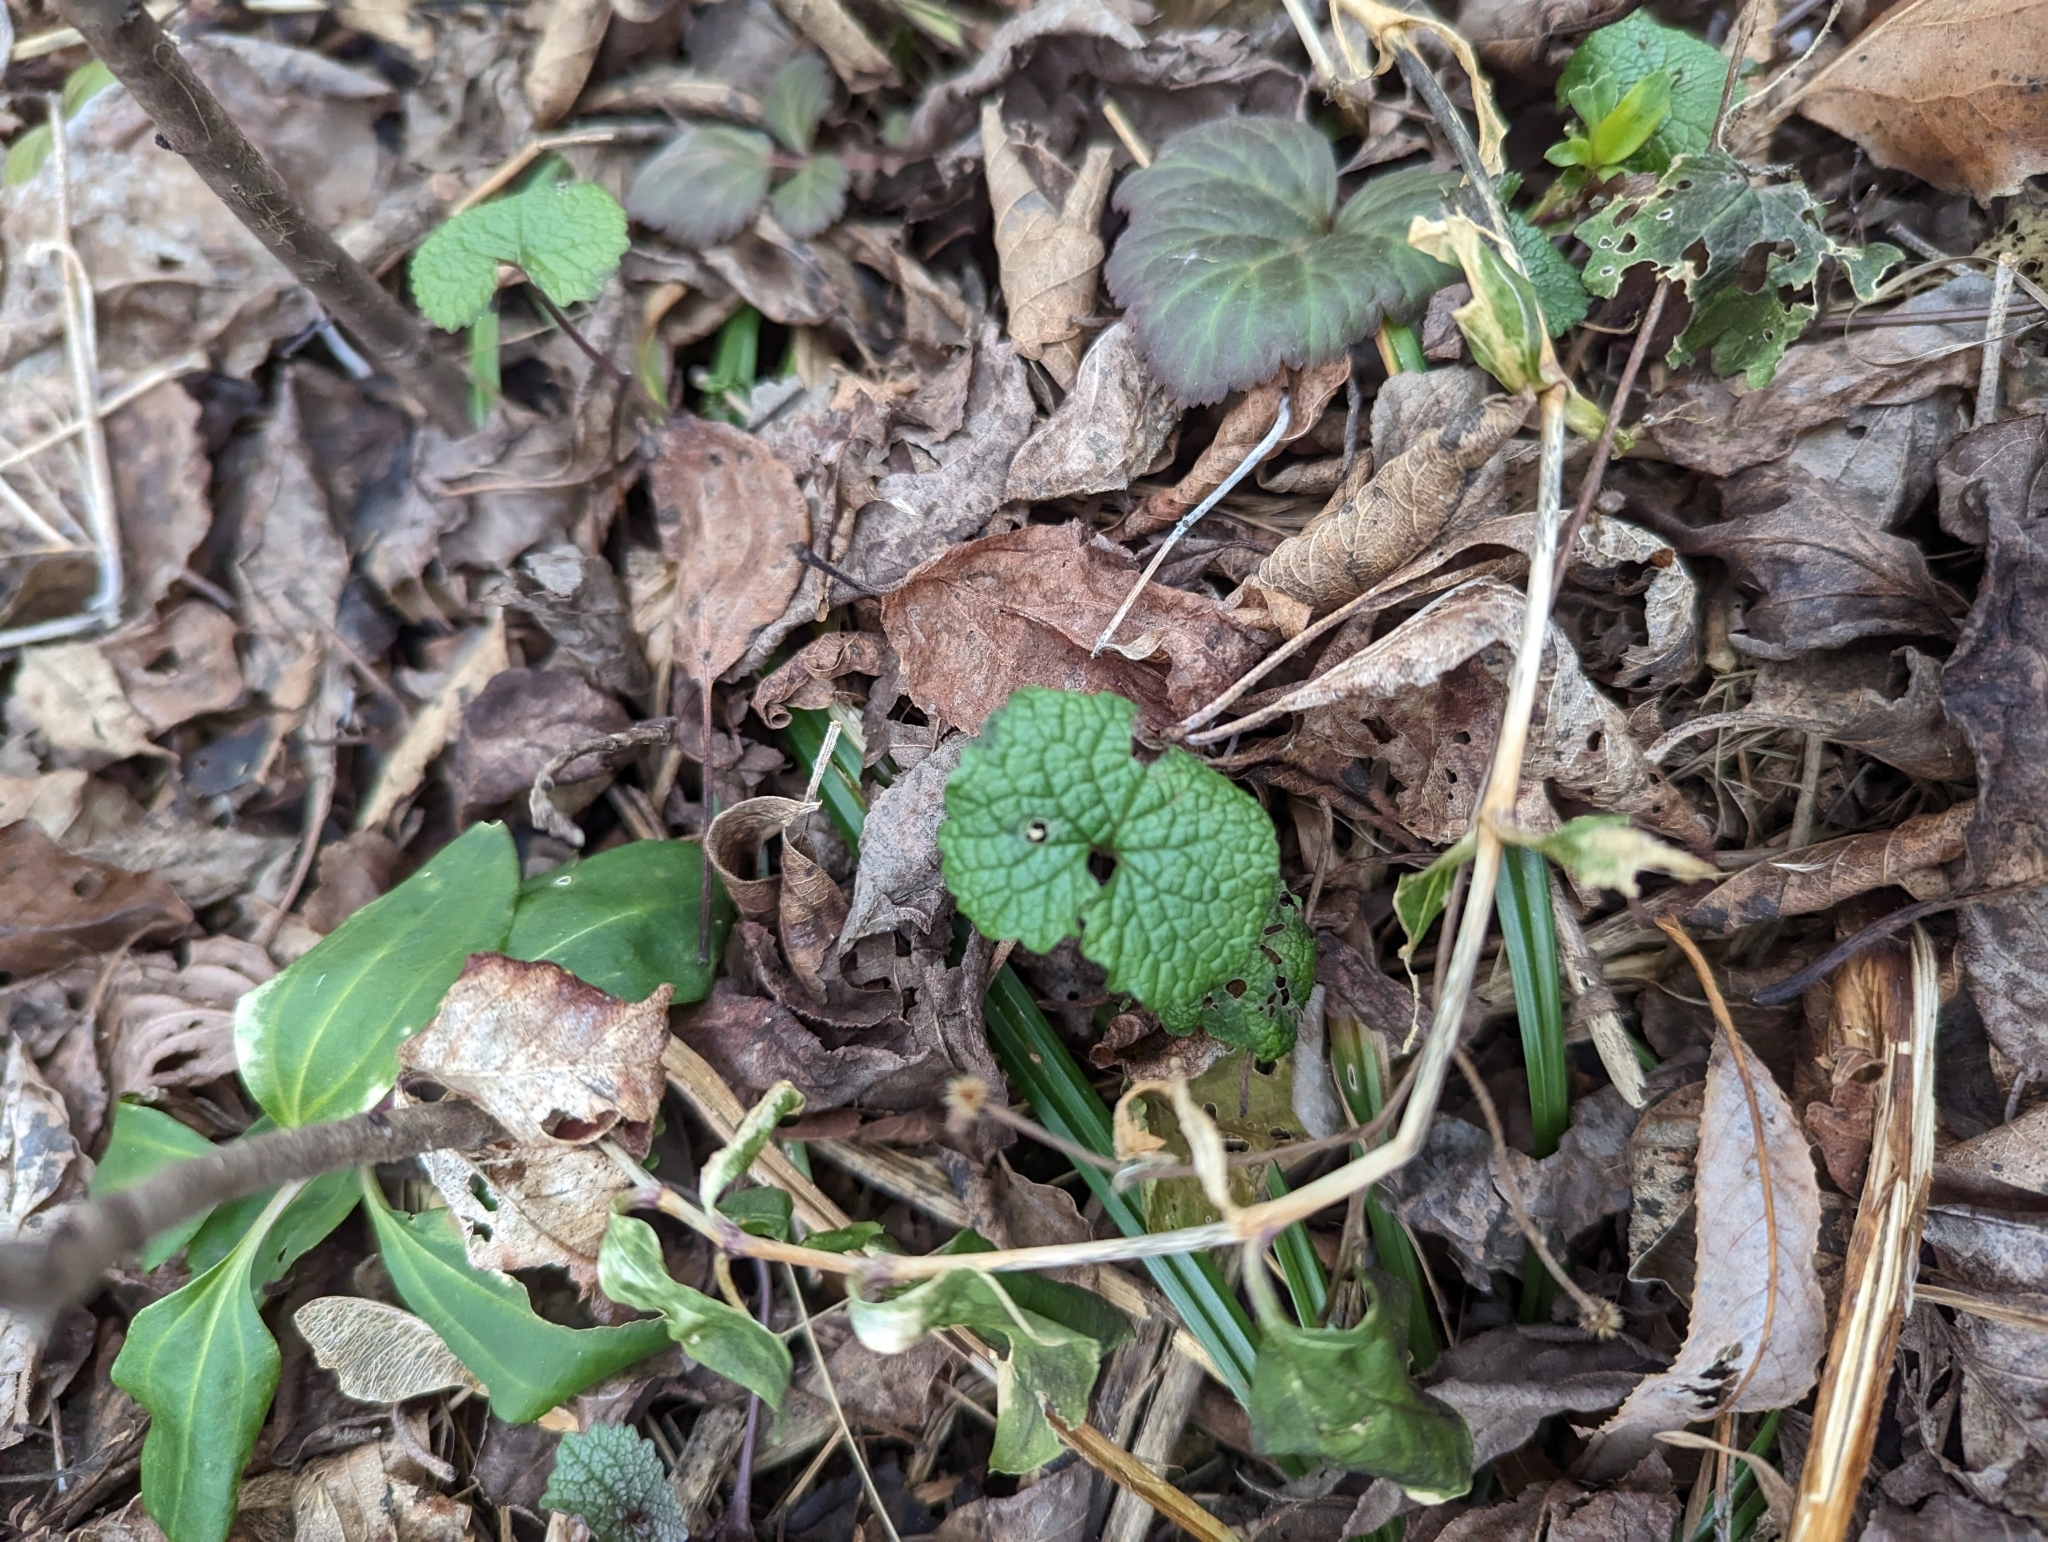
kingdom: Plantae
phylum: Tracheophyta
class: Magnoliopsida
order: Brassicales
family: Brassicaceae
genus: Alliaria
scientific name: Alliaria petiolata
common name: Garlic mustard
